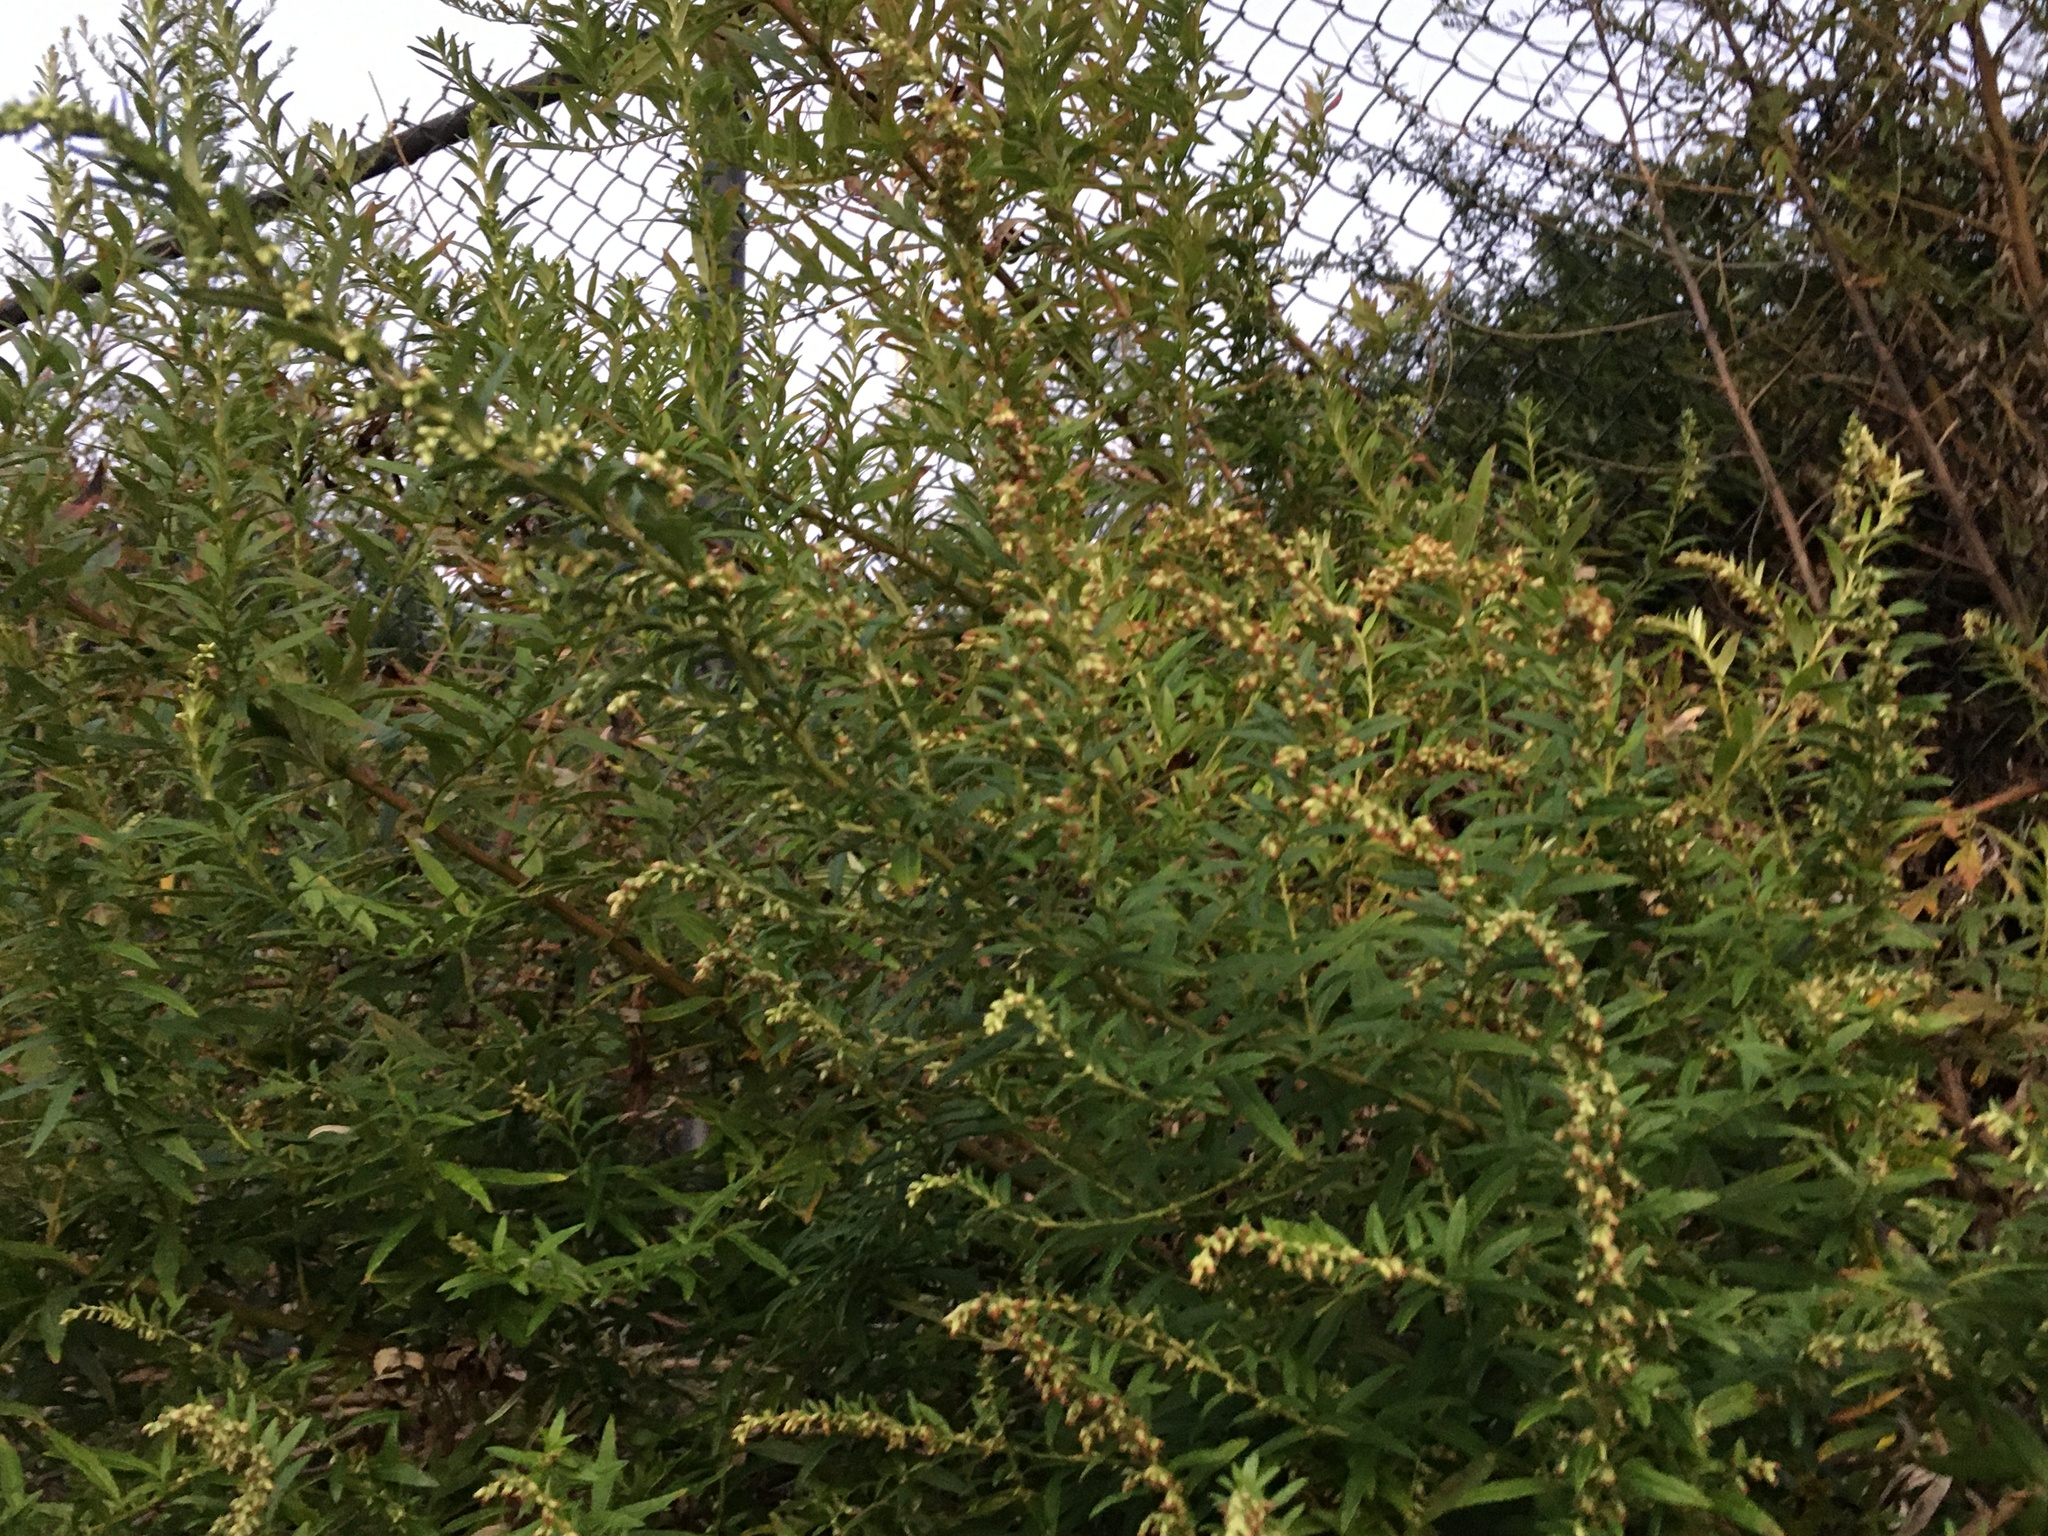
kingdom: Plantae
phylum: Tracheophyta
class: Magnoliopsida
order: Asterales
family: Asteraceae
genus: Artemisia
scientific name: Artemisia vulgaris
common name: Mugwort
